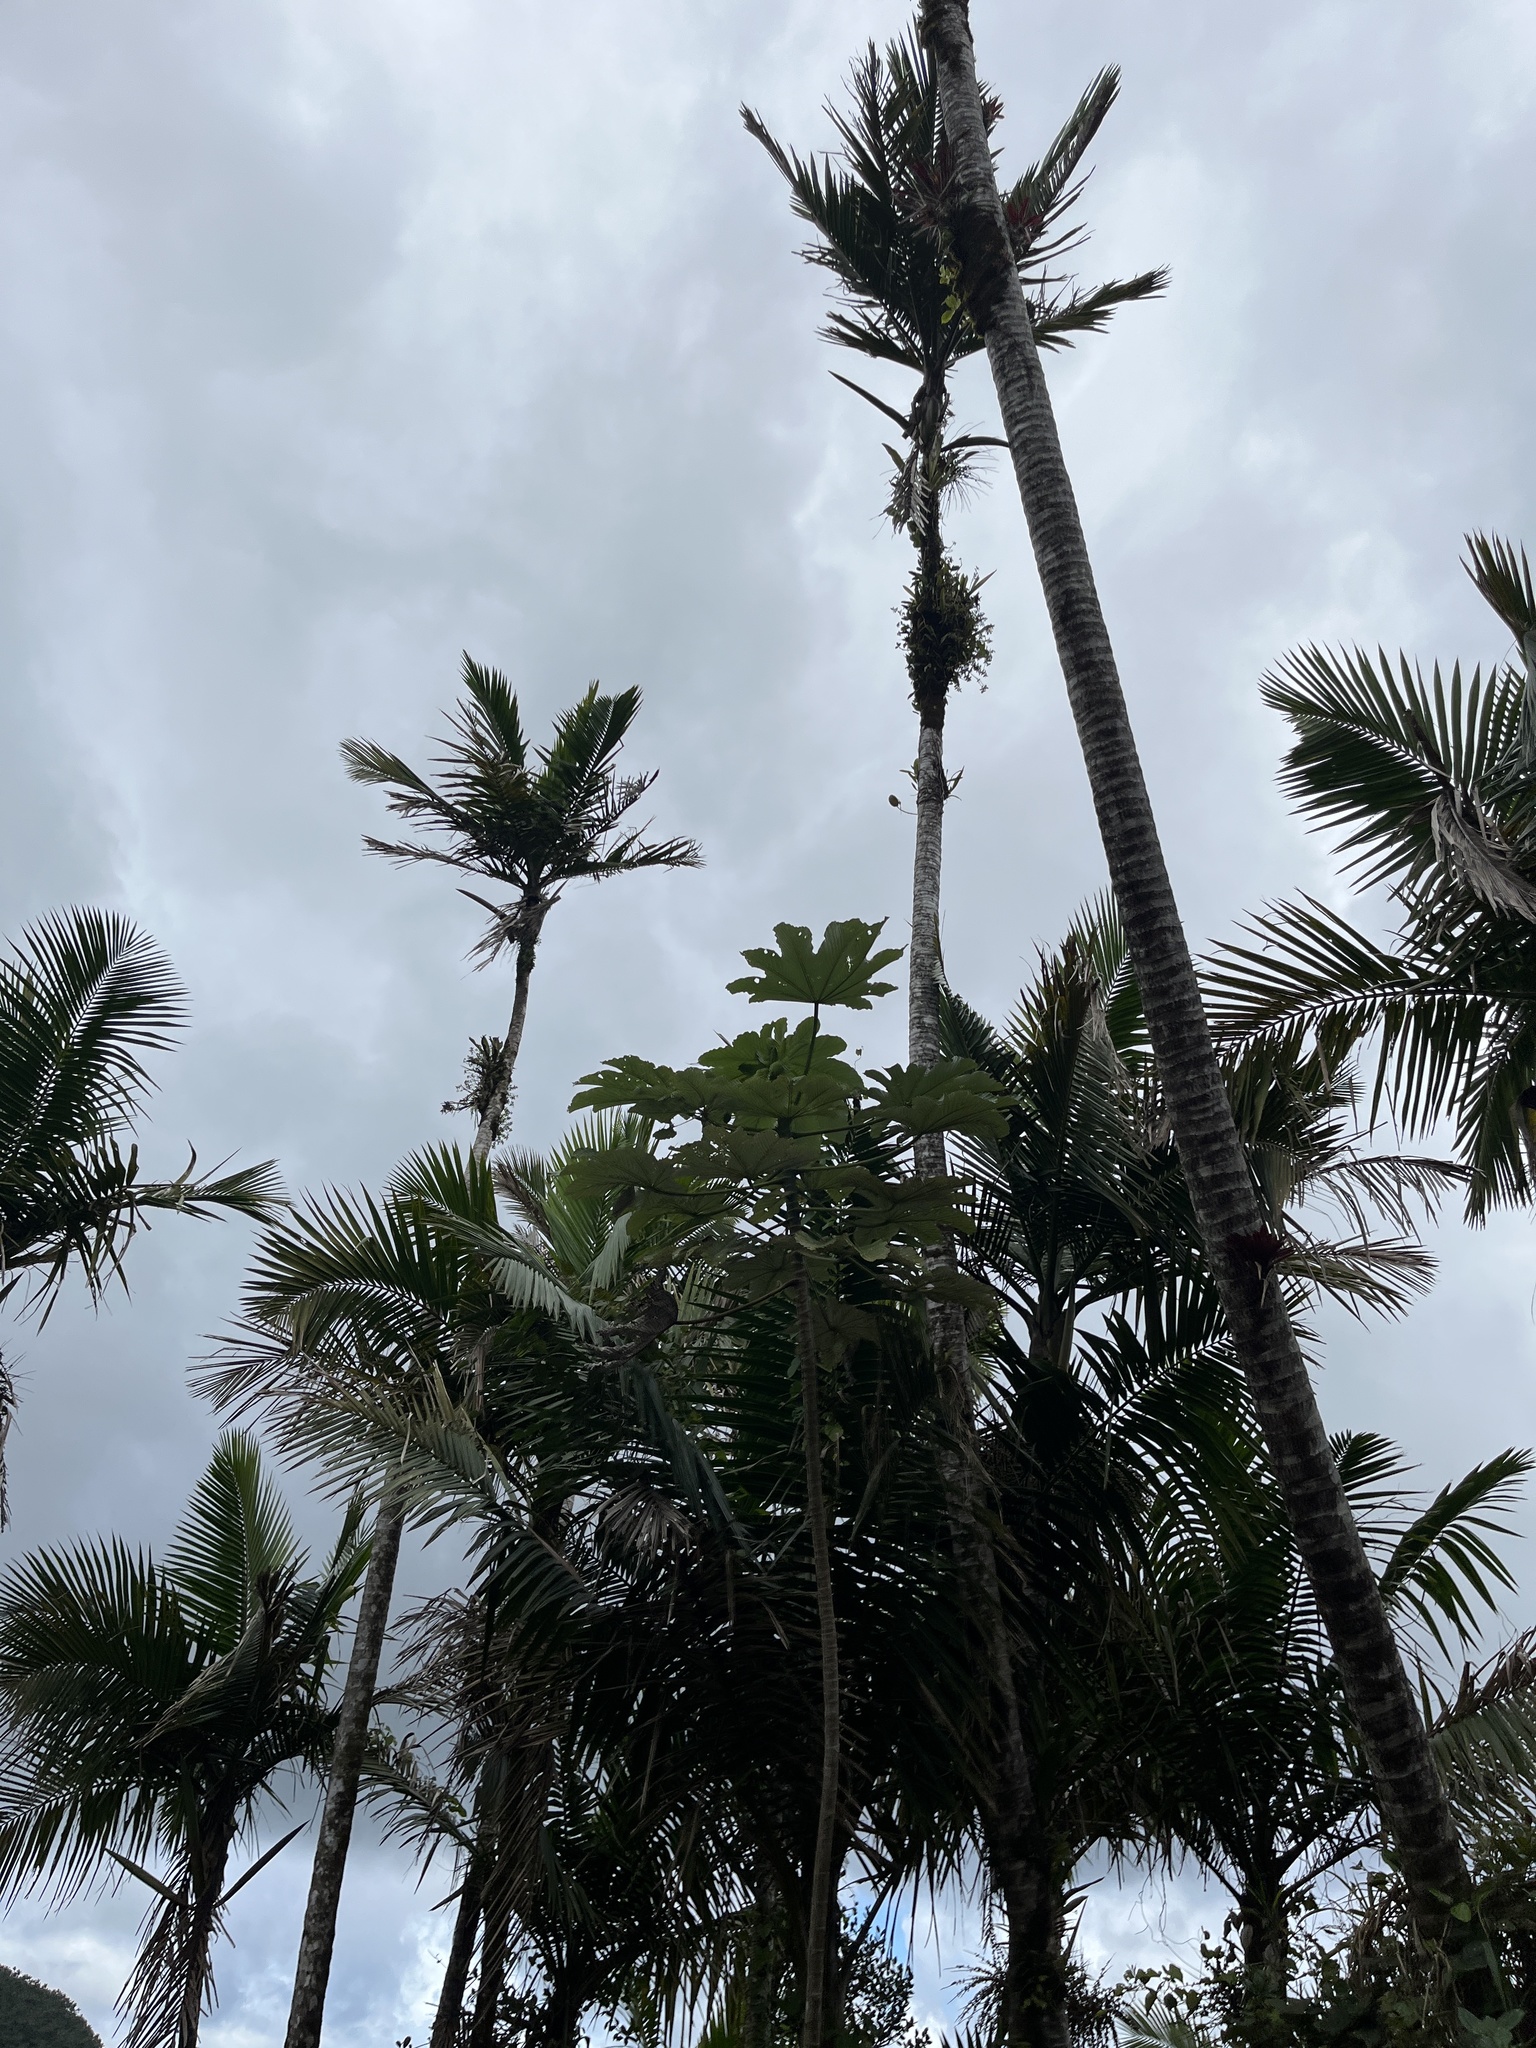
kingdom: Plantae
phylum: Tracheophyta
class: Liliopsida
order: Arecales
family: Arecaceae
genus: Prestoea
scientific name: Prestoea acuminata
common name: Sierran palm
